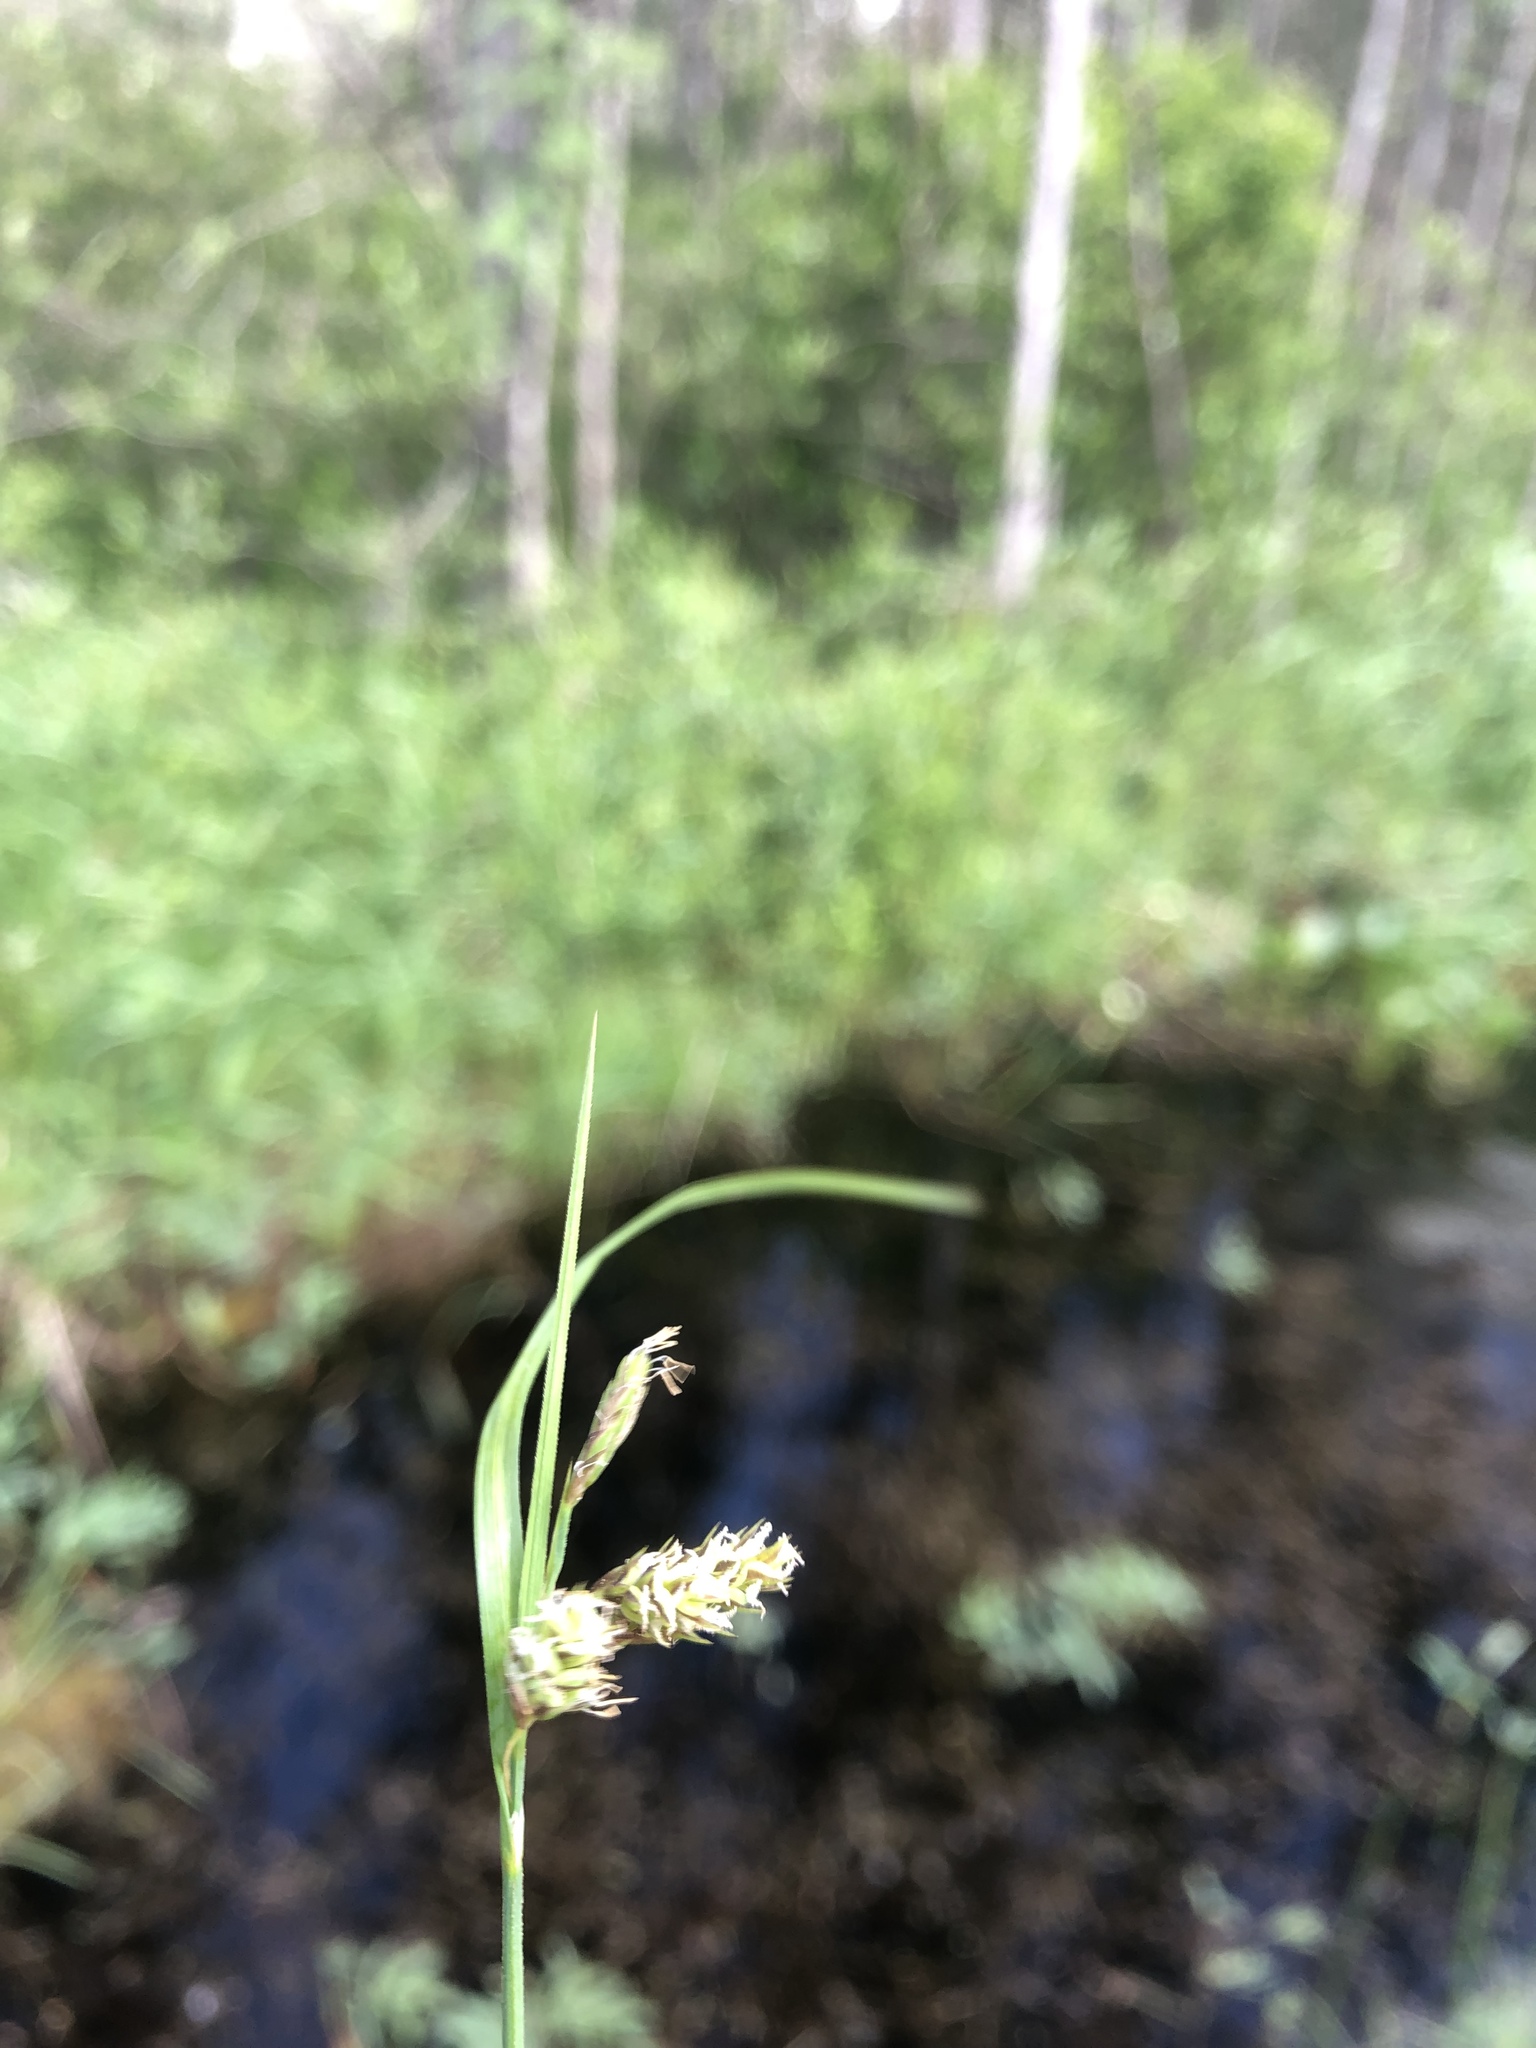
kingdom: Plantae
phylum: Tracheophyta
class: Liliopsida
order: Poales
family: Cyperaceae
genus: Carex
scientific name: Carex magellanica
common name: Bog sedge
